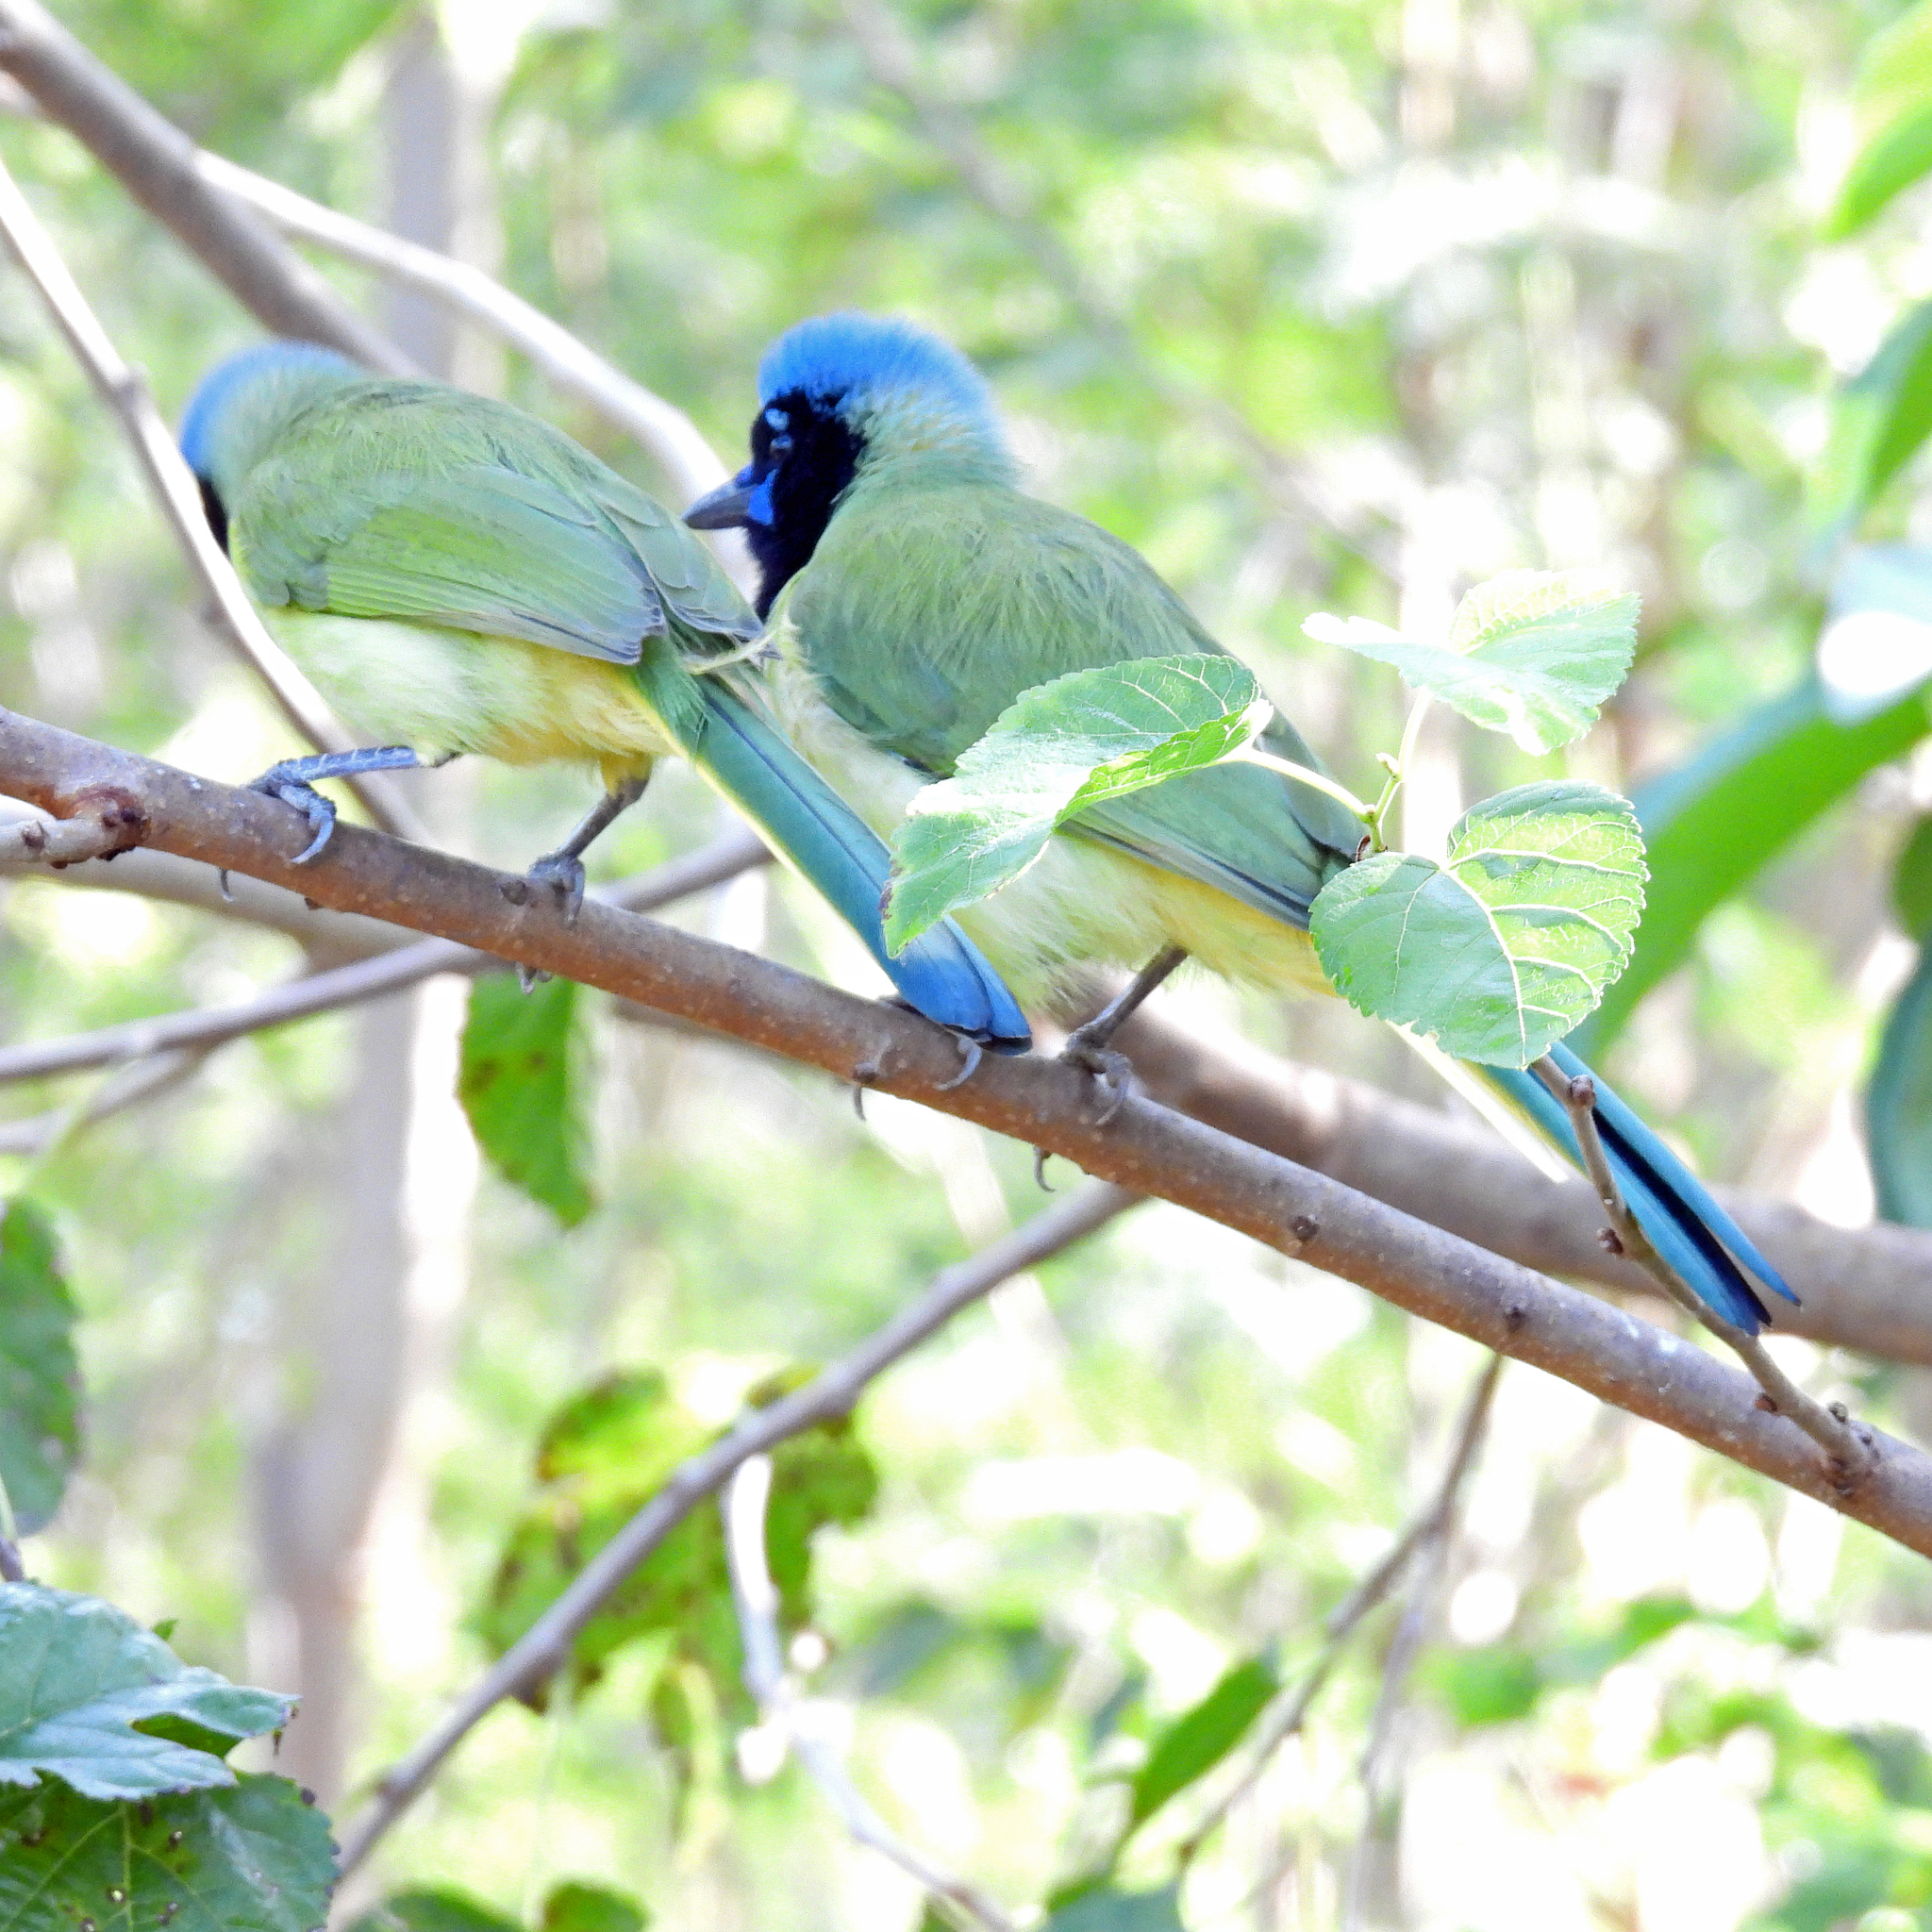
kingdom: Animalia
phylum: Chordata
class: Aves
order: Passeriformes
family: Corvidae
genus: Cyanocorax
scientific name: Cyanocorax yncas
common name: Green jay
